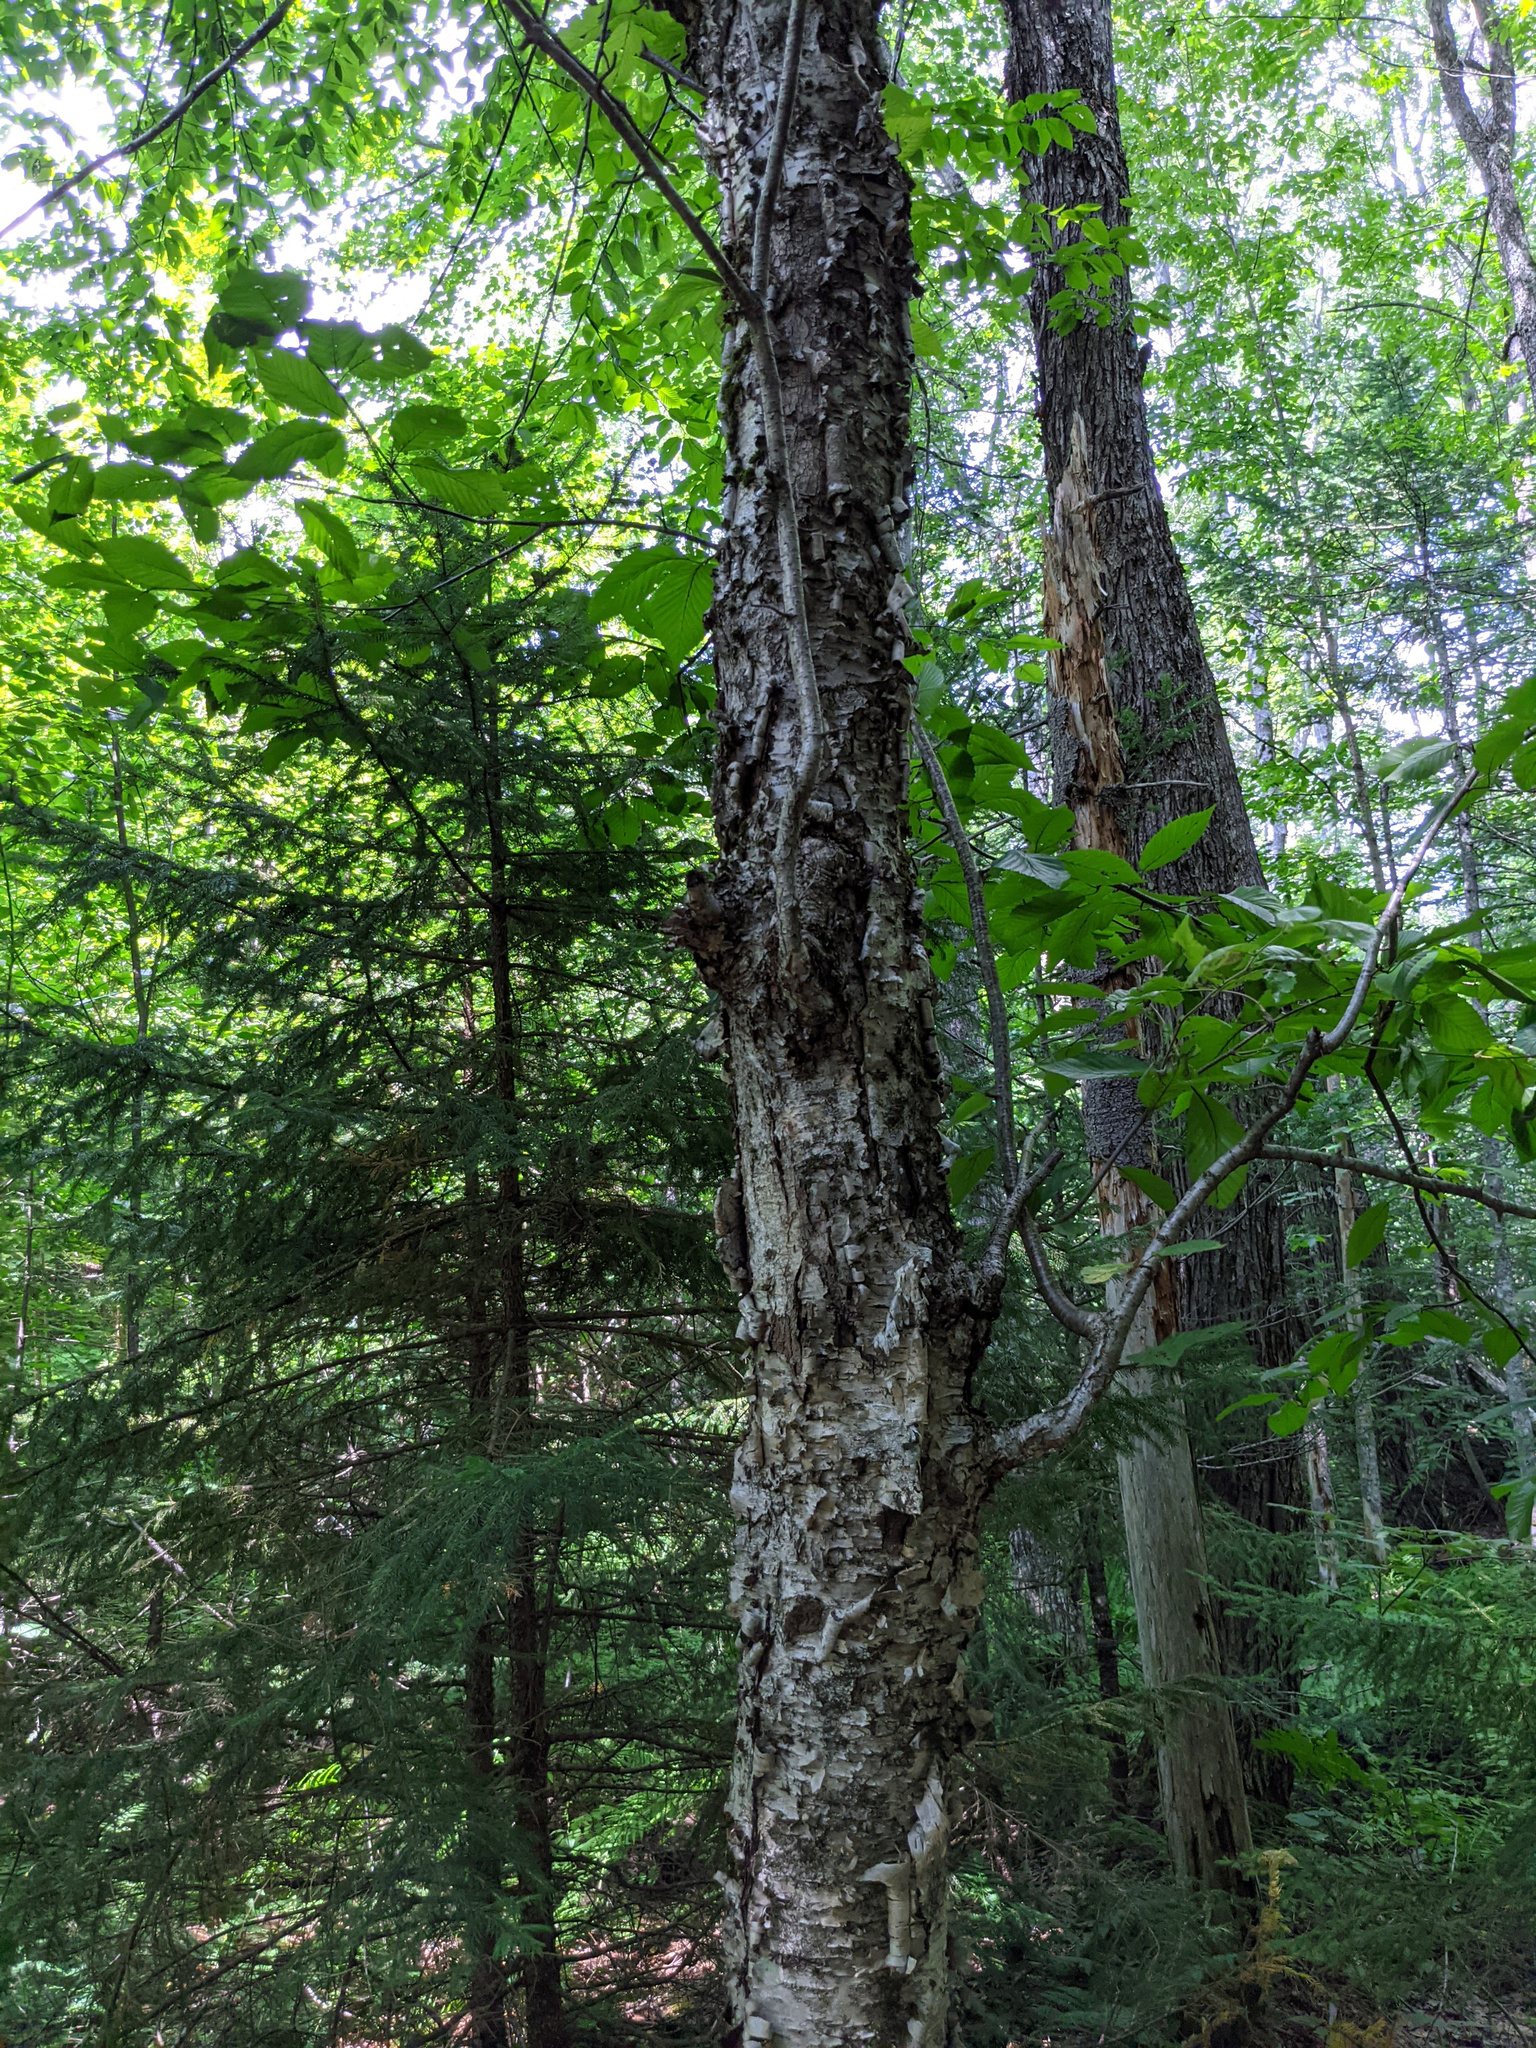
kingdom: Plantae
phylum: Tracheophyta
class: Magnoliopsida
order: Fagales
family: Betulaceae
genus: Betula
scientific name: Betula alleghaniensis
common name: Yellow birch
